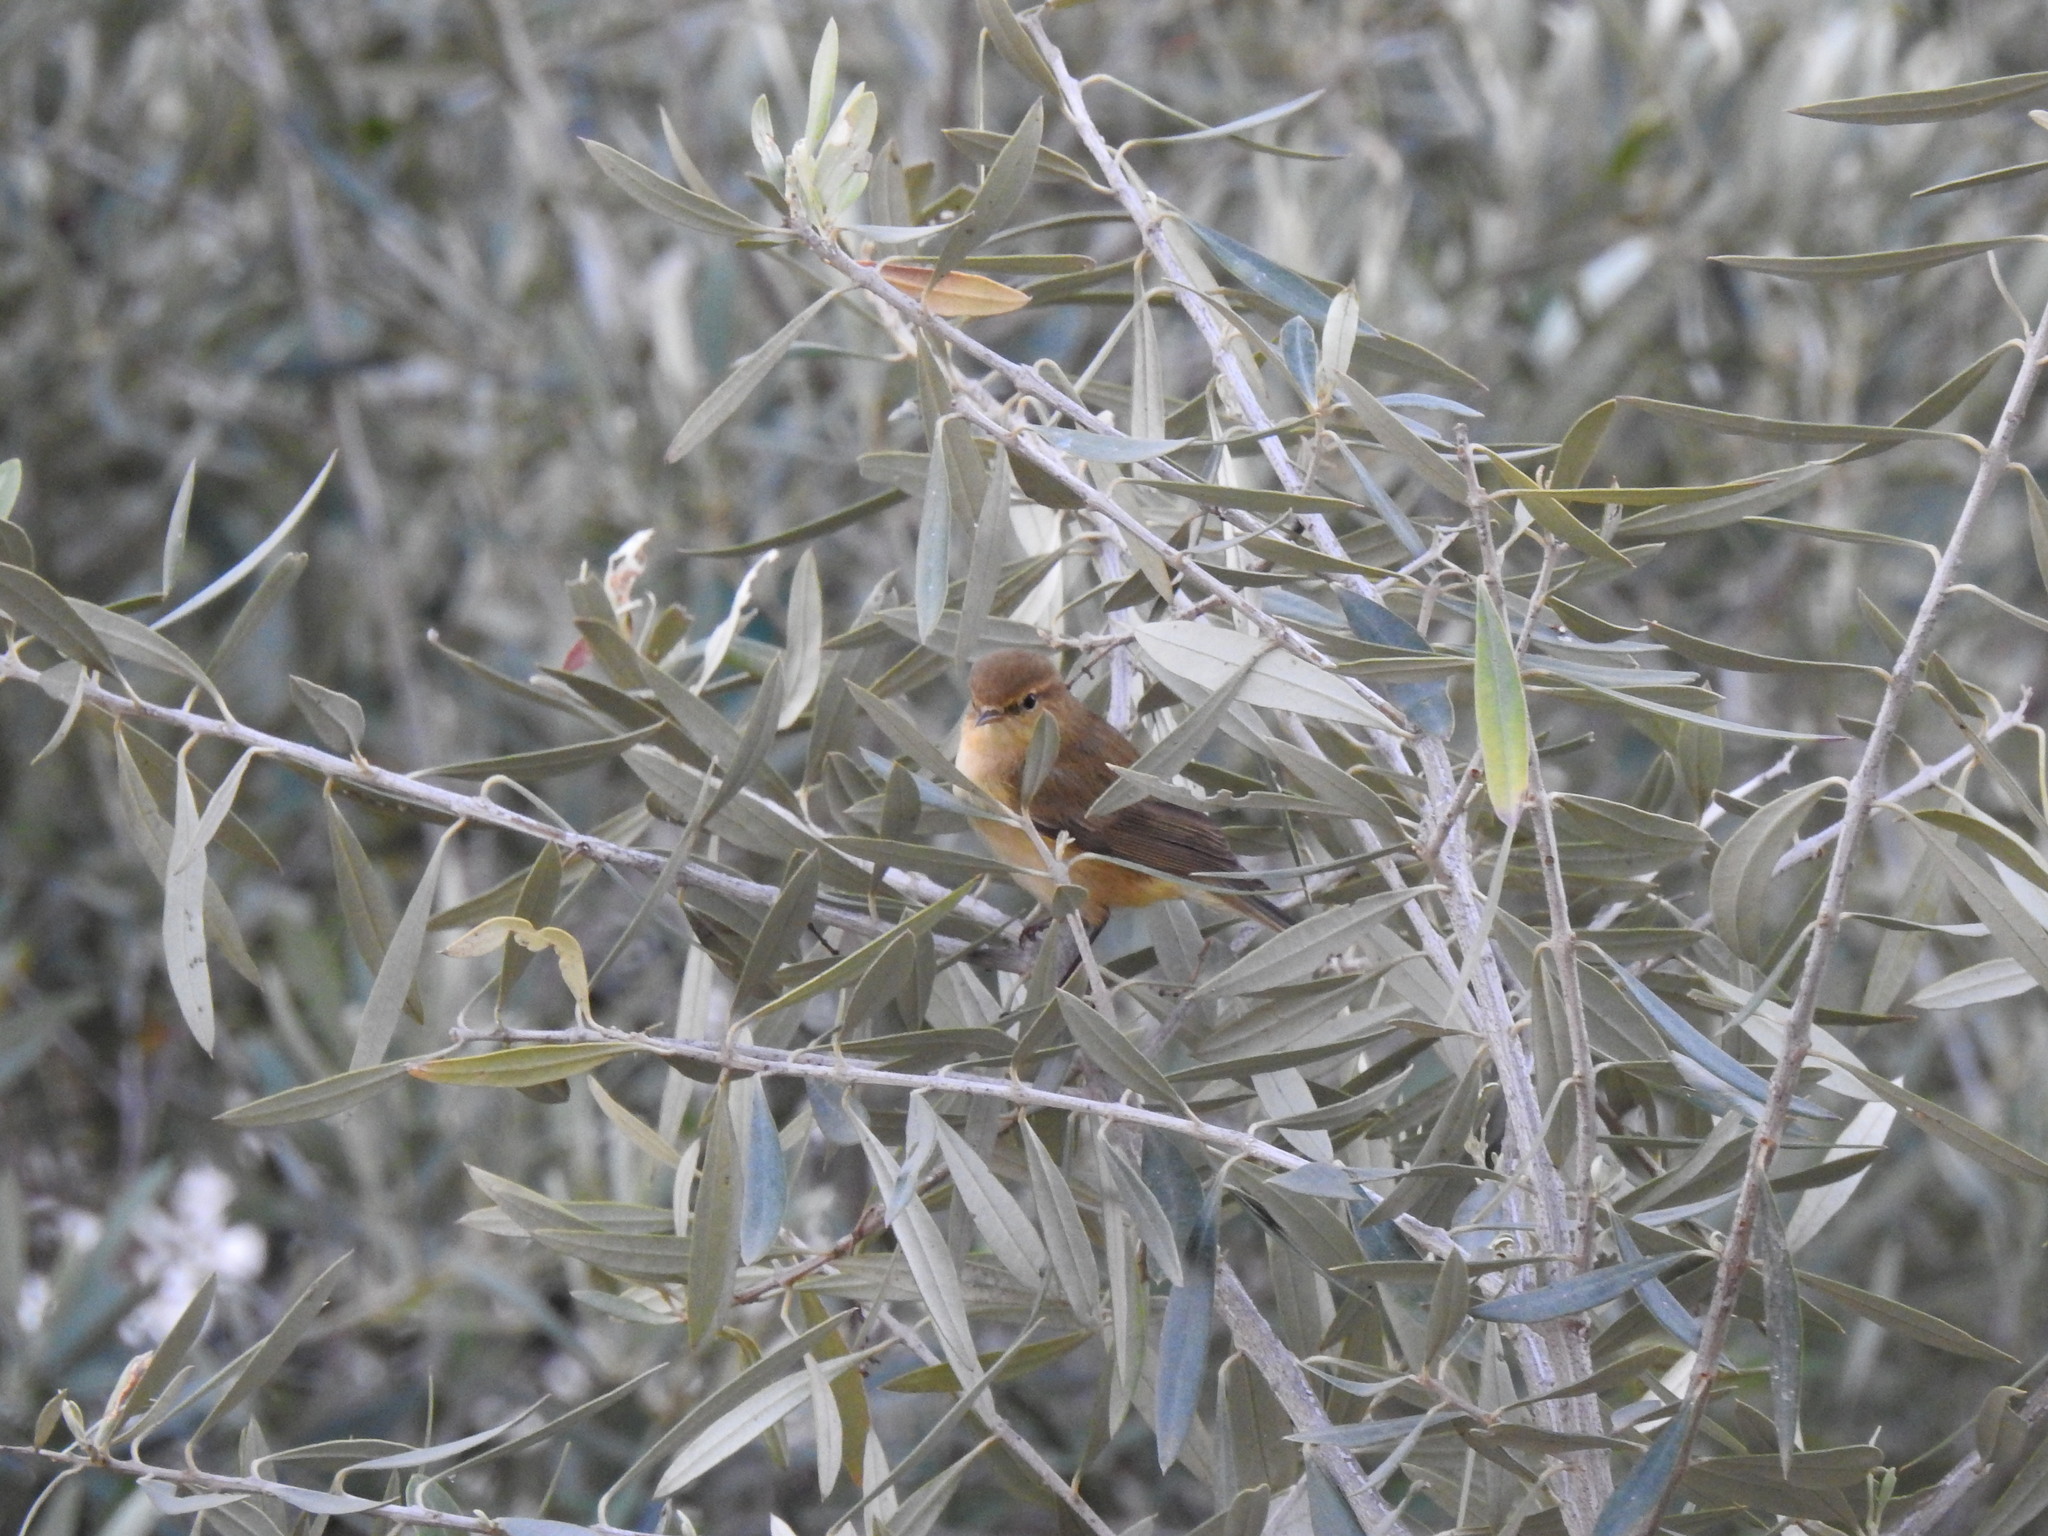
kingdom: Animalia
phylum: Chordata
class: Aves
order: Passeriformes
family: Phylloscopidae
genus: Phylloscopus
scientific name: Phylloscopus collybita
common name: Common chiffchaff
